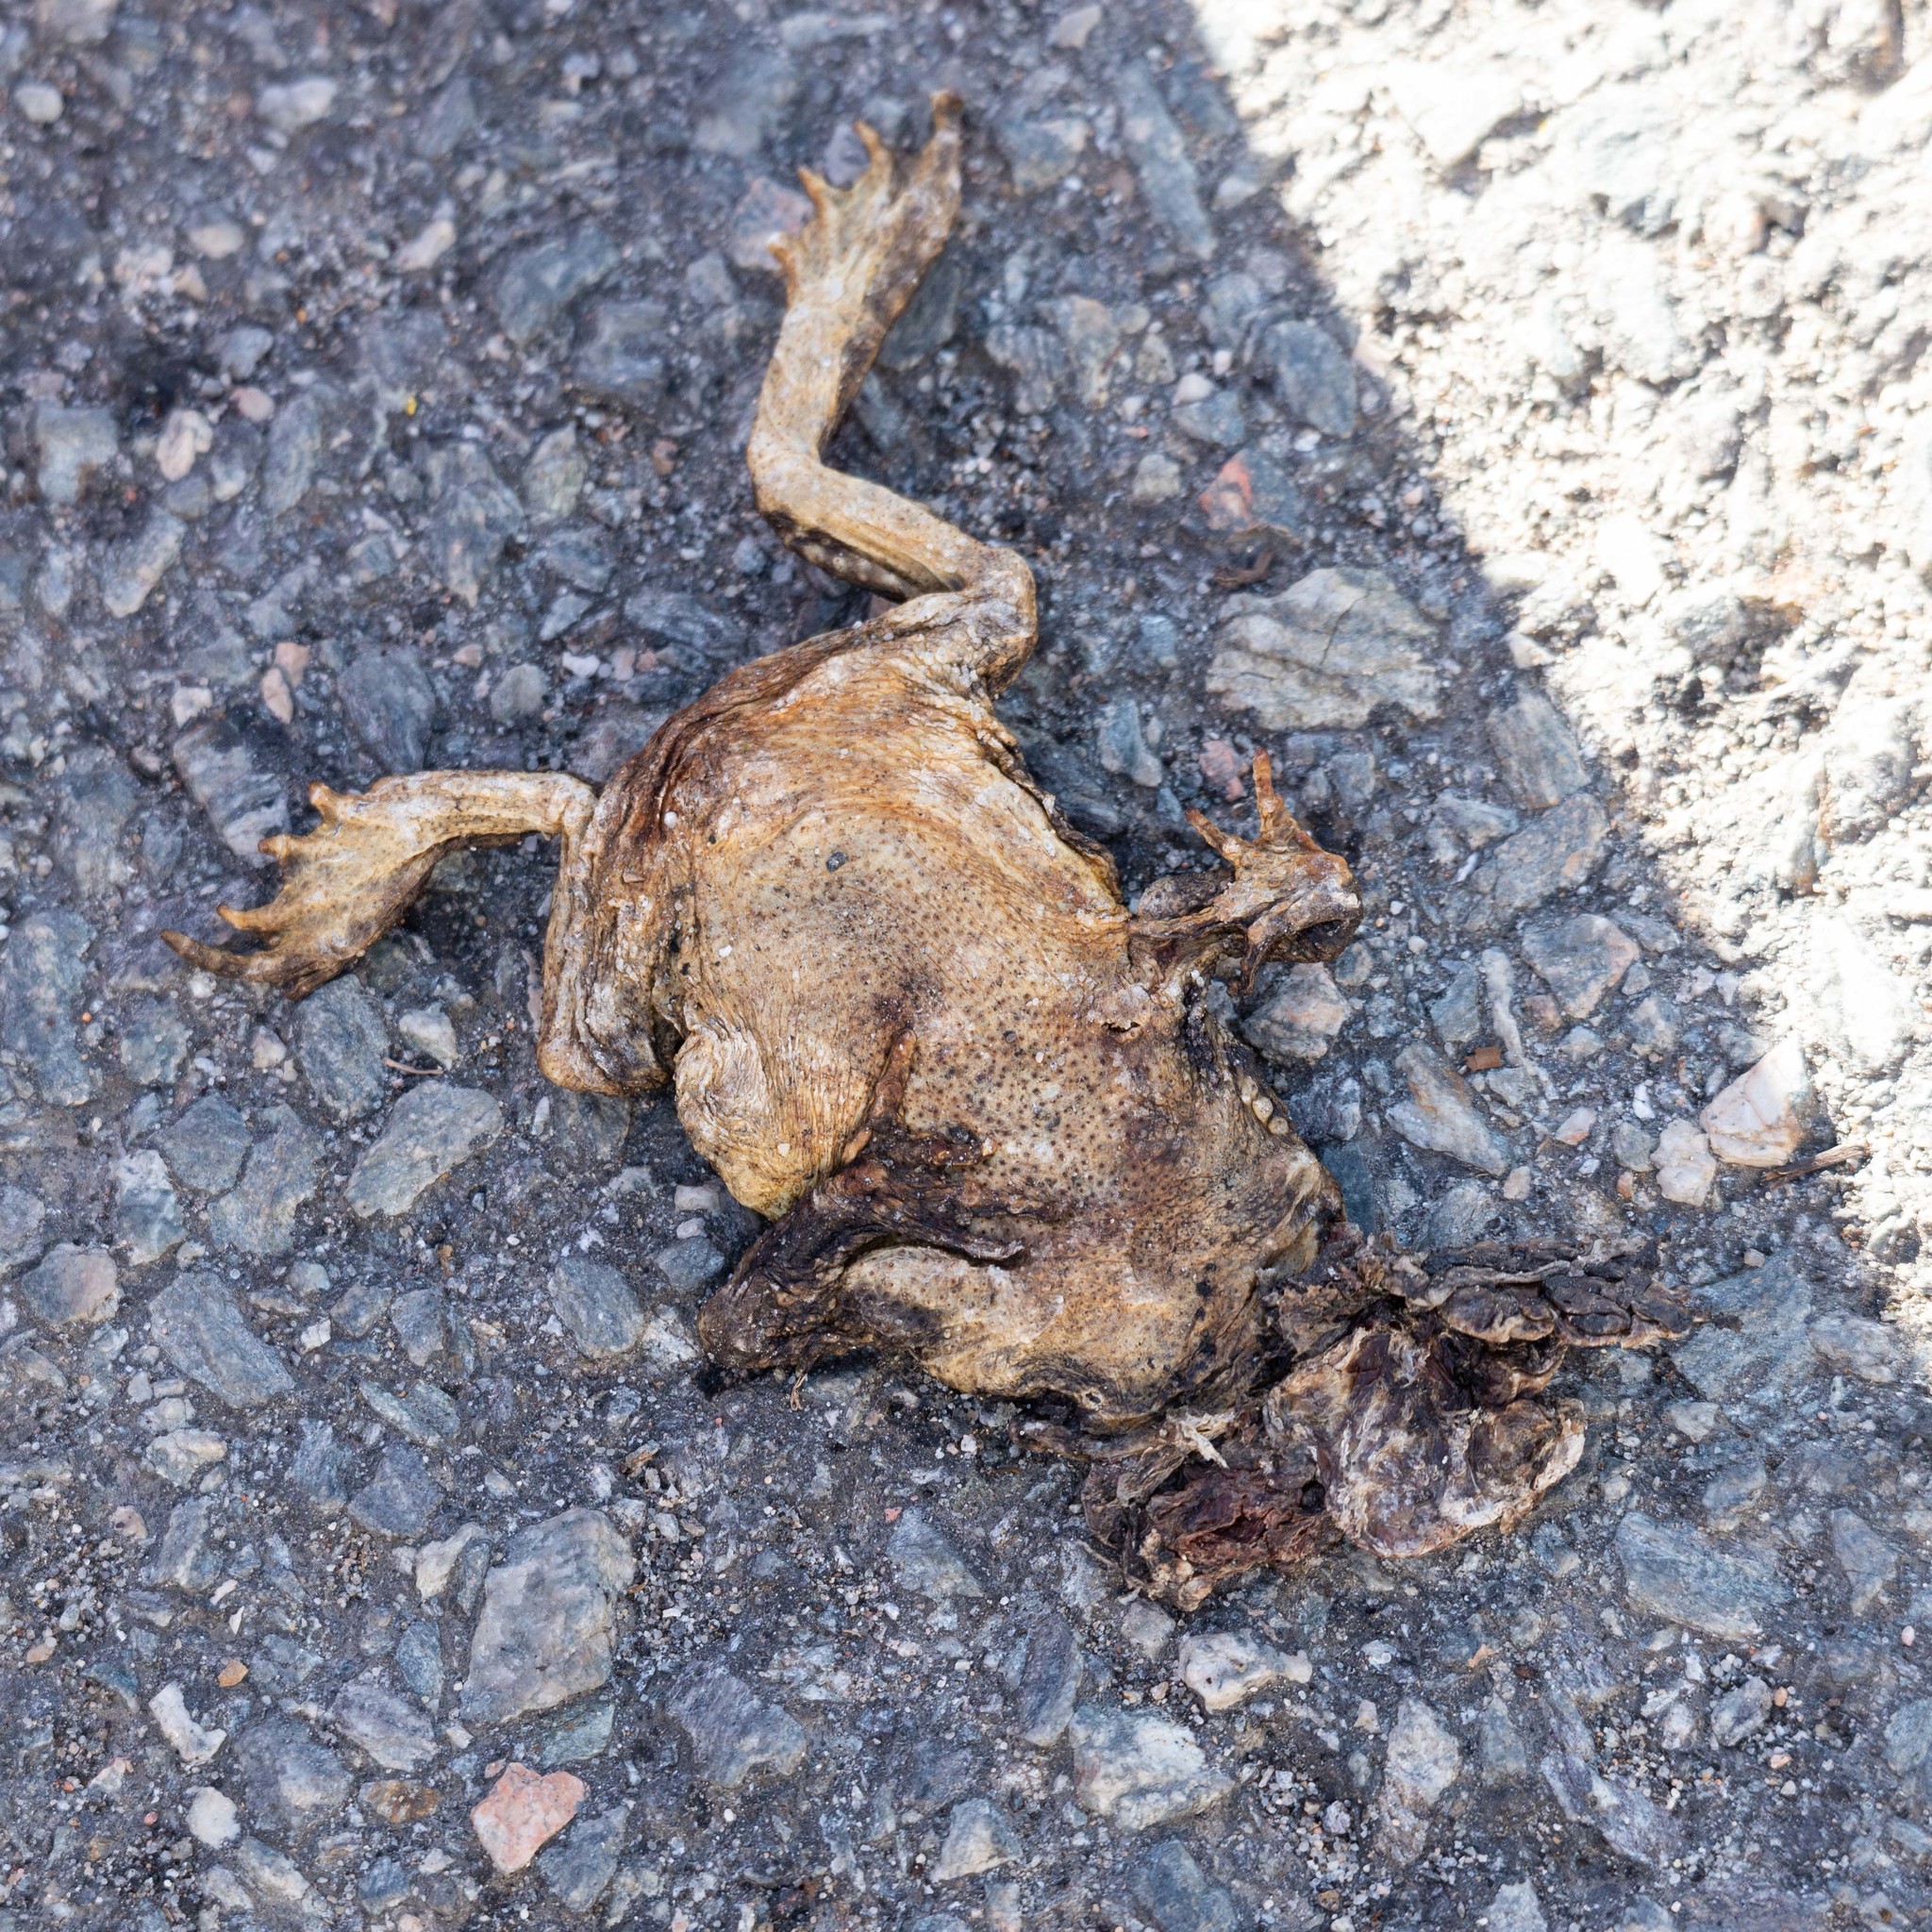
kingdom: Animalia
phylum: Chordata
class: Amphibia
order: Anura
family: Bufonidae
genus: Bufo
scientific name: Bufo spinosus
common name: Western common toad
